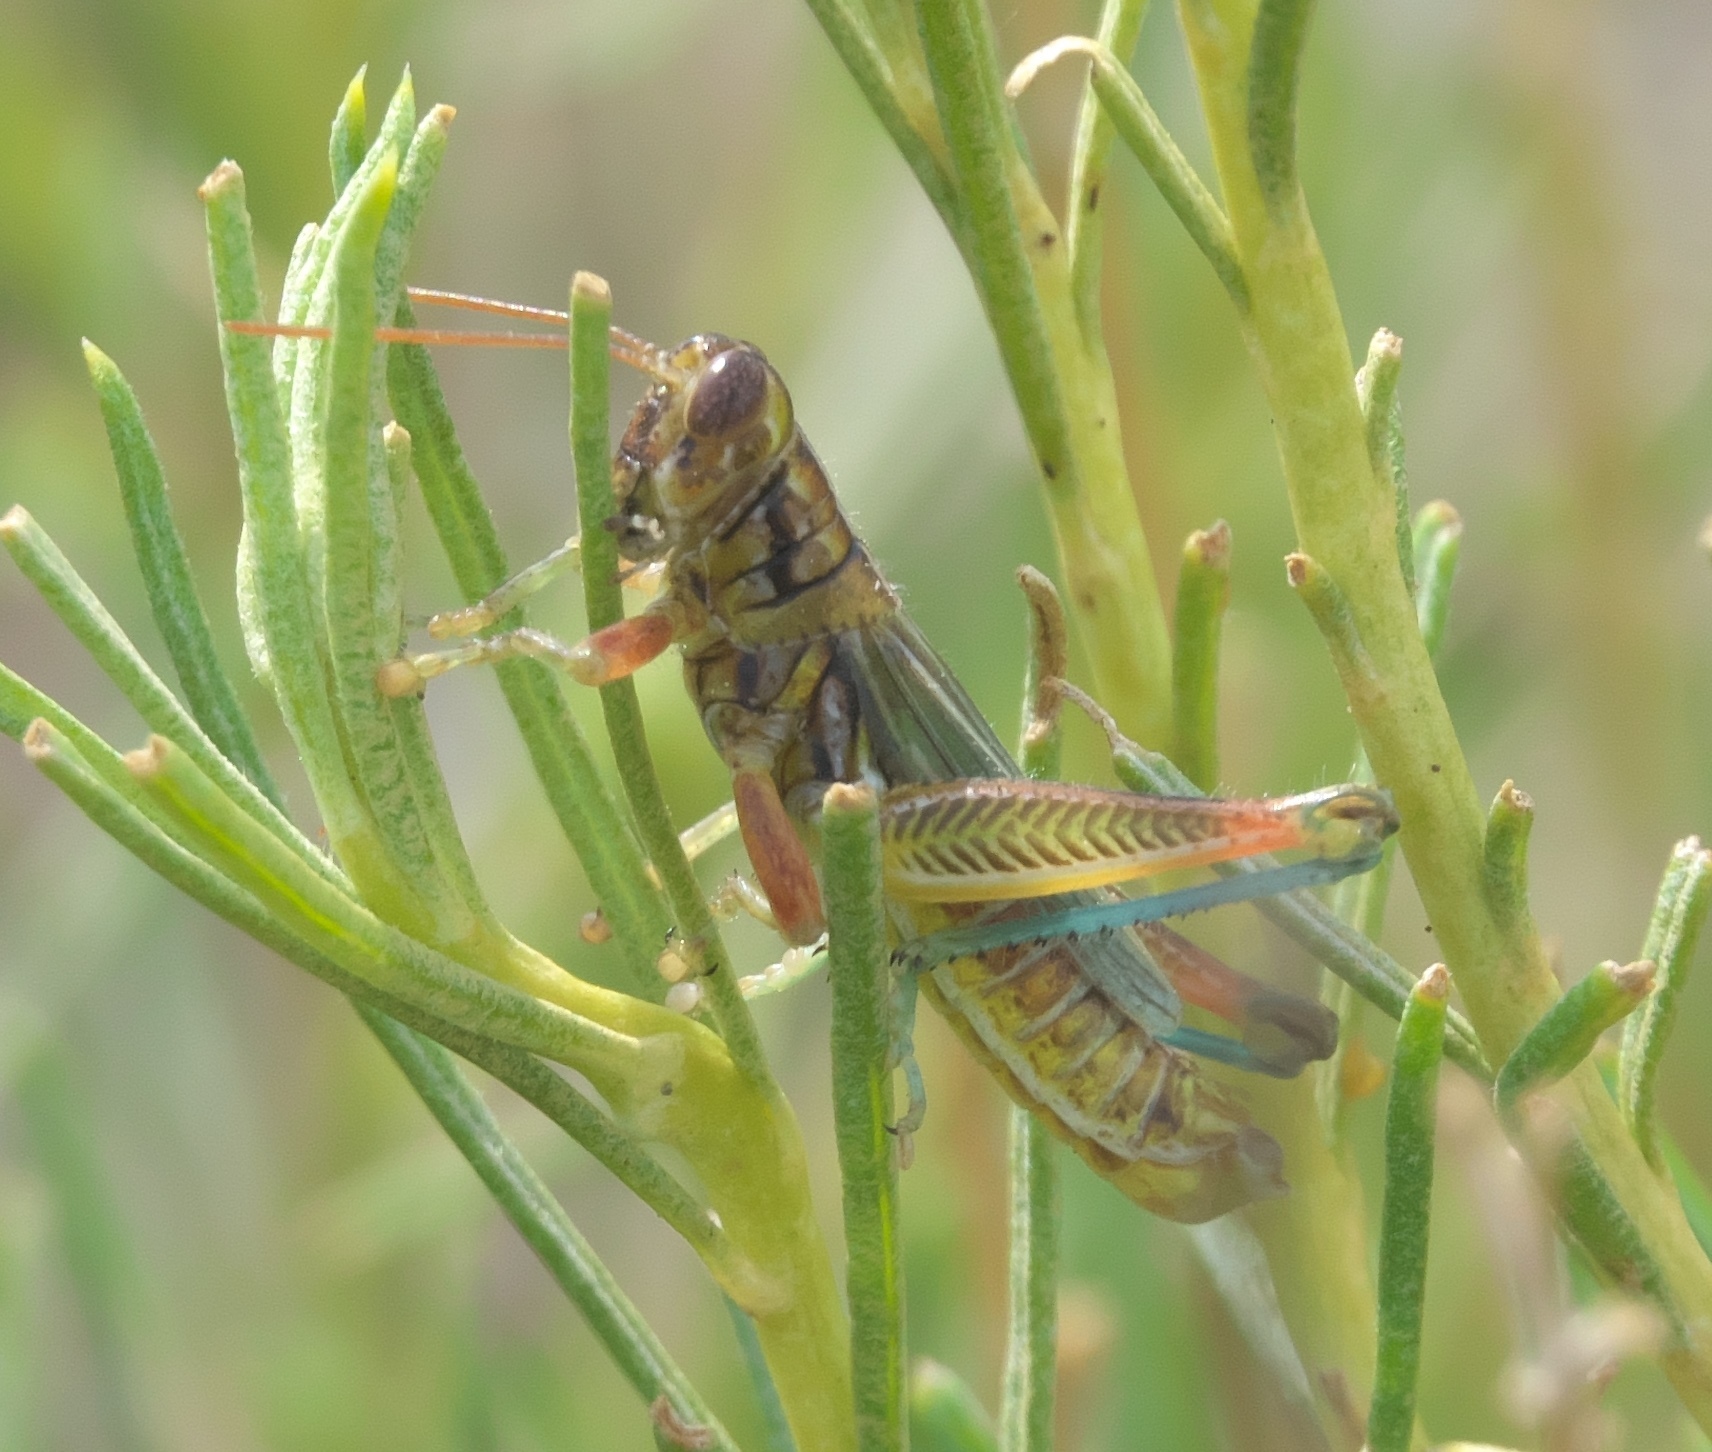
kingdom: Animalia
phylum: Arthropoda
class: Insecta
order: Orthoptera
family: Acrididae
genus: Hesperotettix
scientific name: Hesperotettix viridis
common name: Meadow purple-striped grasshopper
